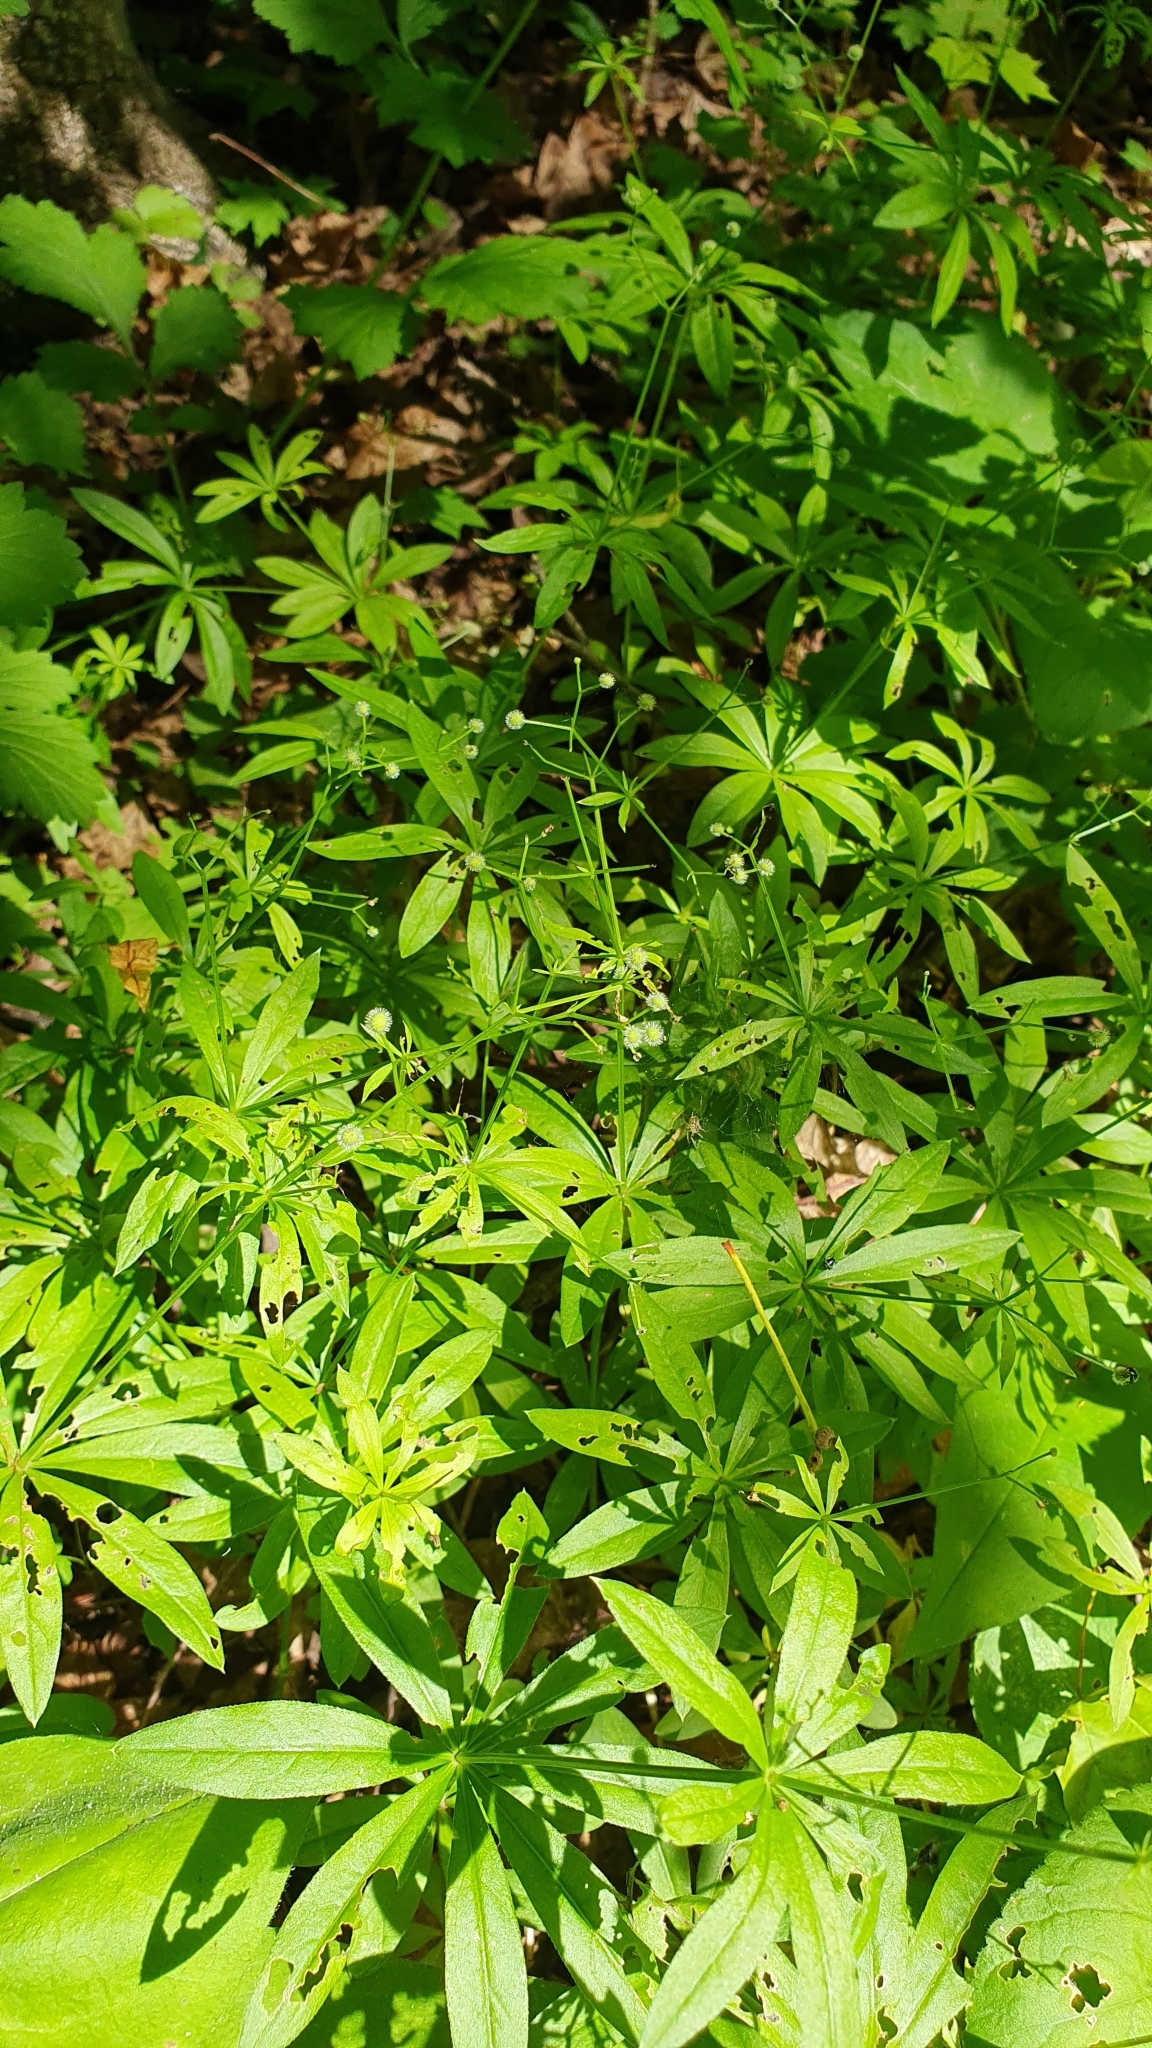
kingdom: Plantae
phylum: Tracheophyta
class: Magnoliopsida
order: Gentianales
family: Rubiaceae
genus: Galium
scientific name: Galium odoratum
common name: Sweet woodruff
